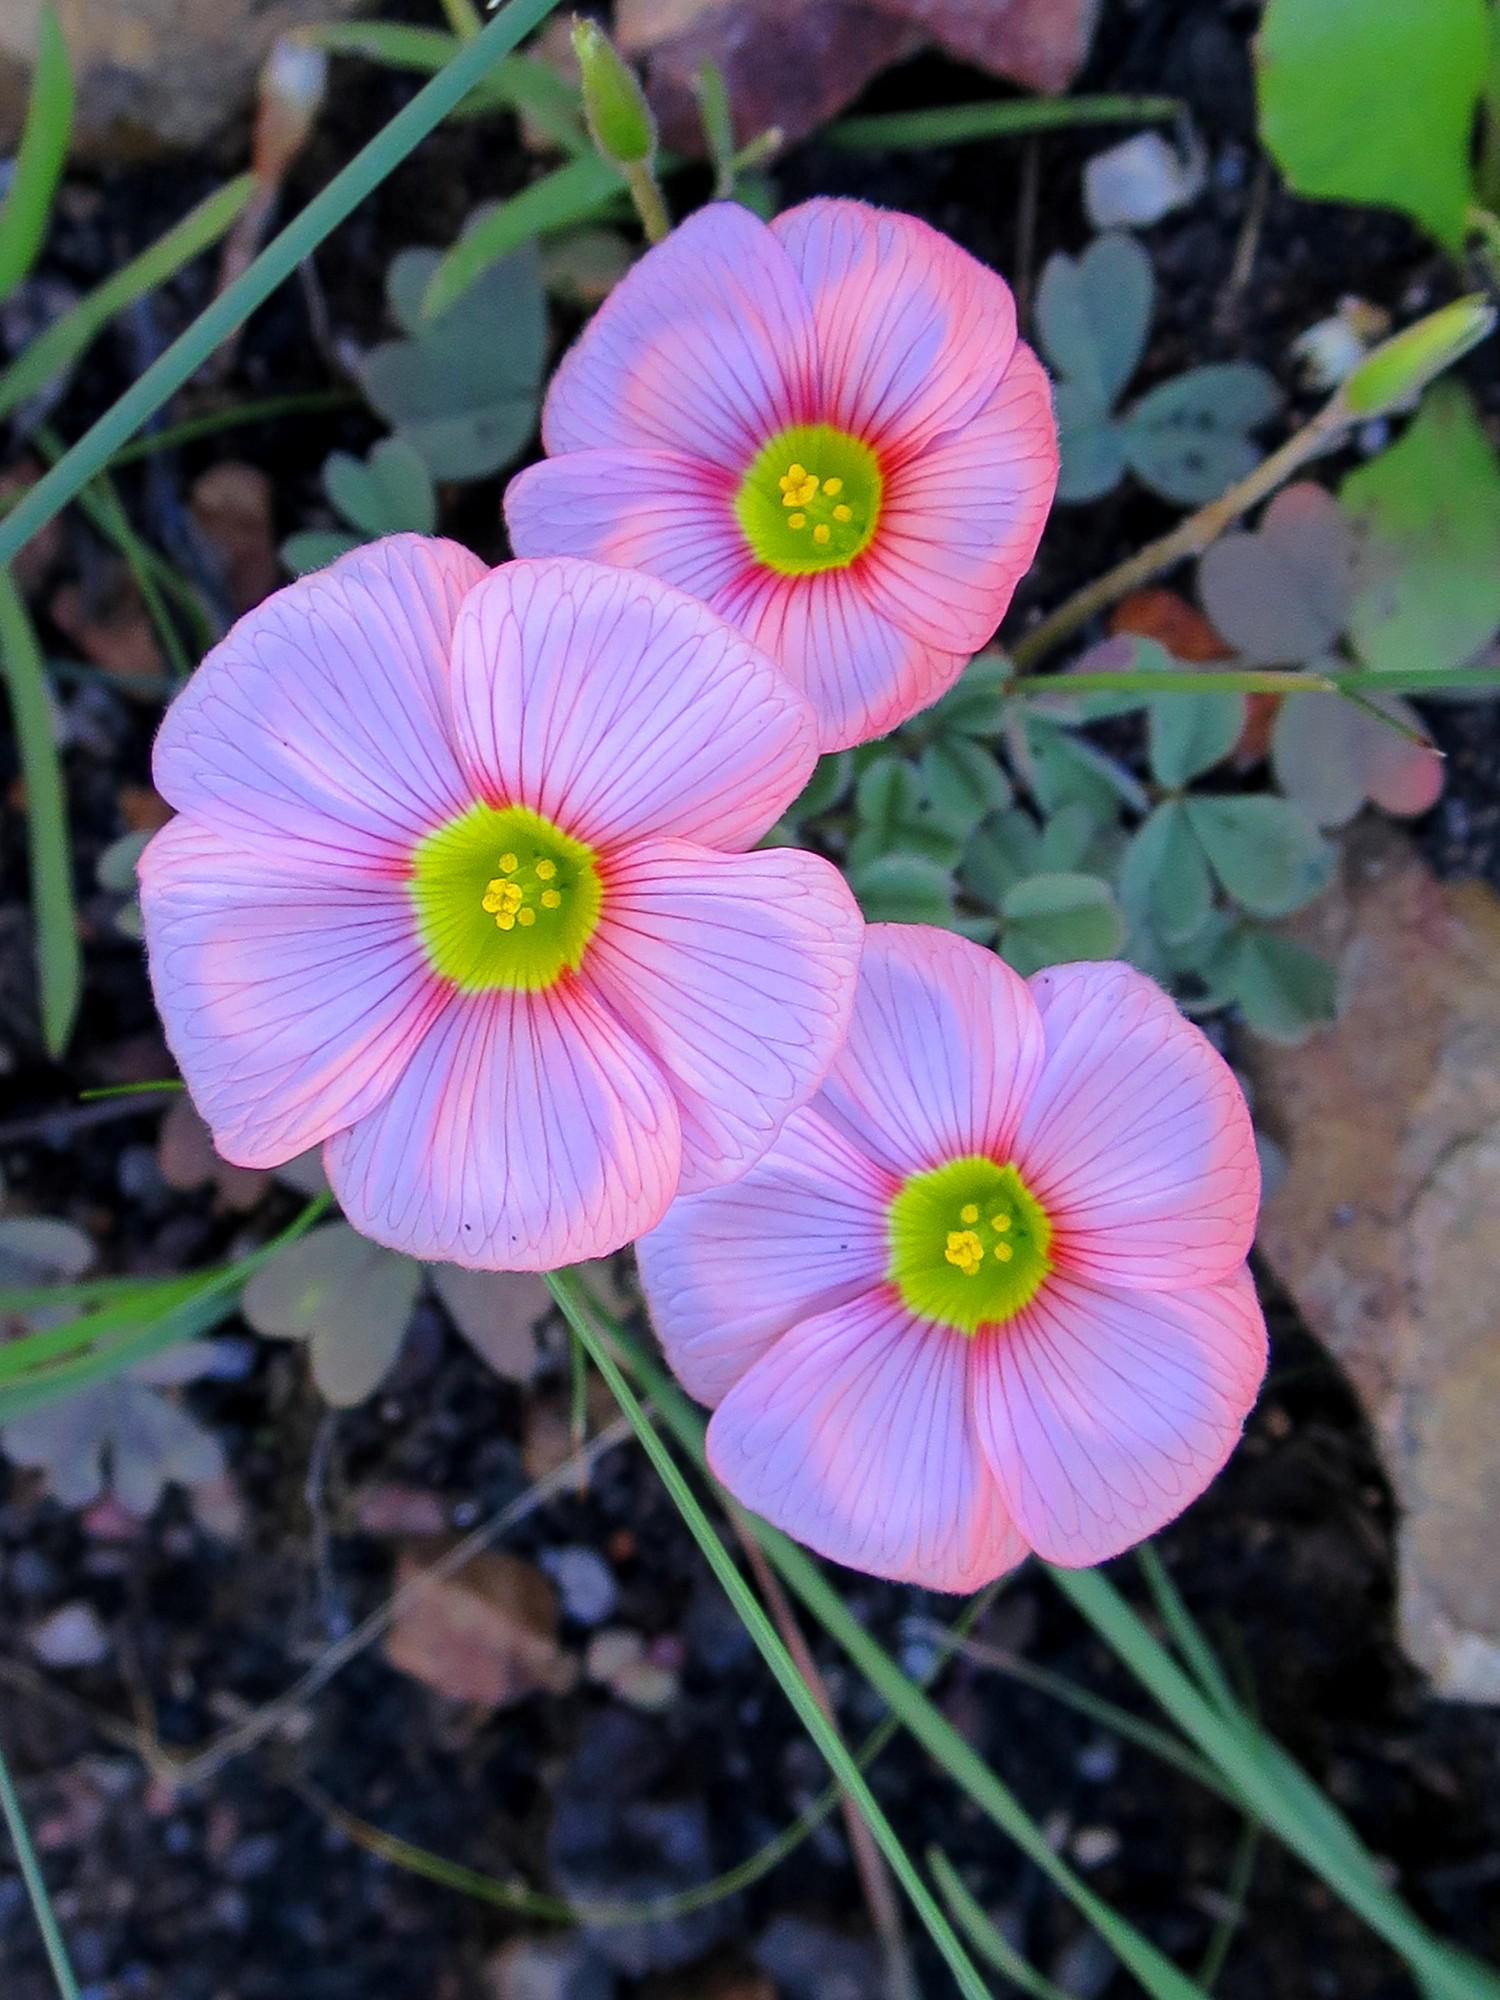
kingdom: Plantae
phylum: Tracheophyta
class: Magnoliopsida
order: Oxalidales
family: Oxalidaceae
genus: Oxalis
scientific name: Oxalis obtusa
